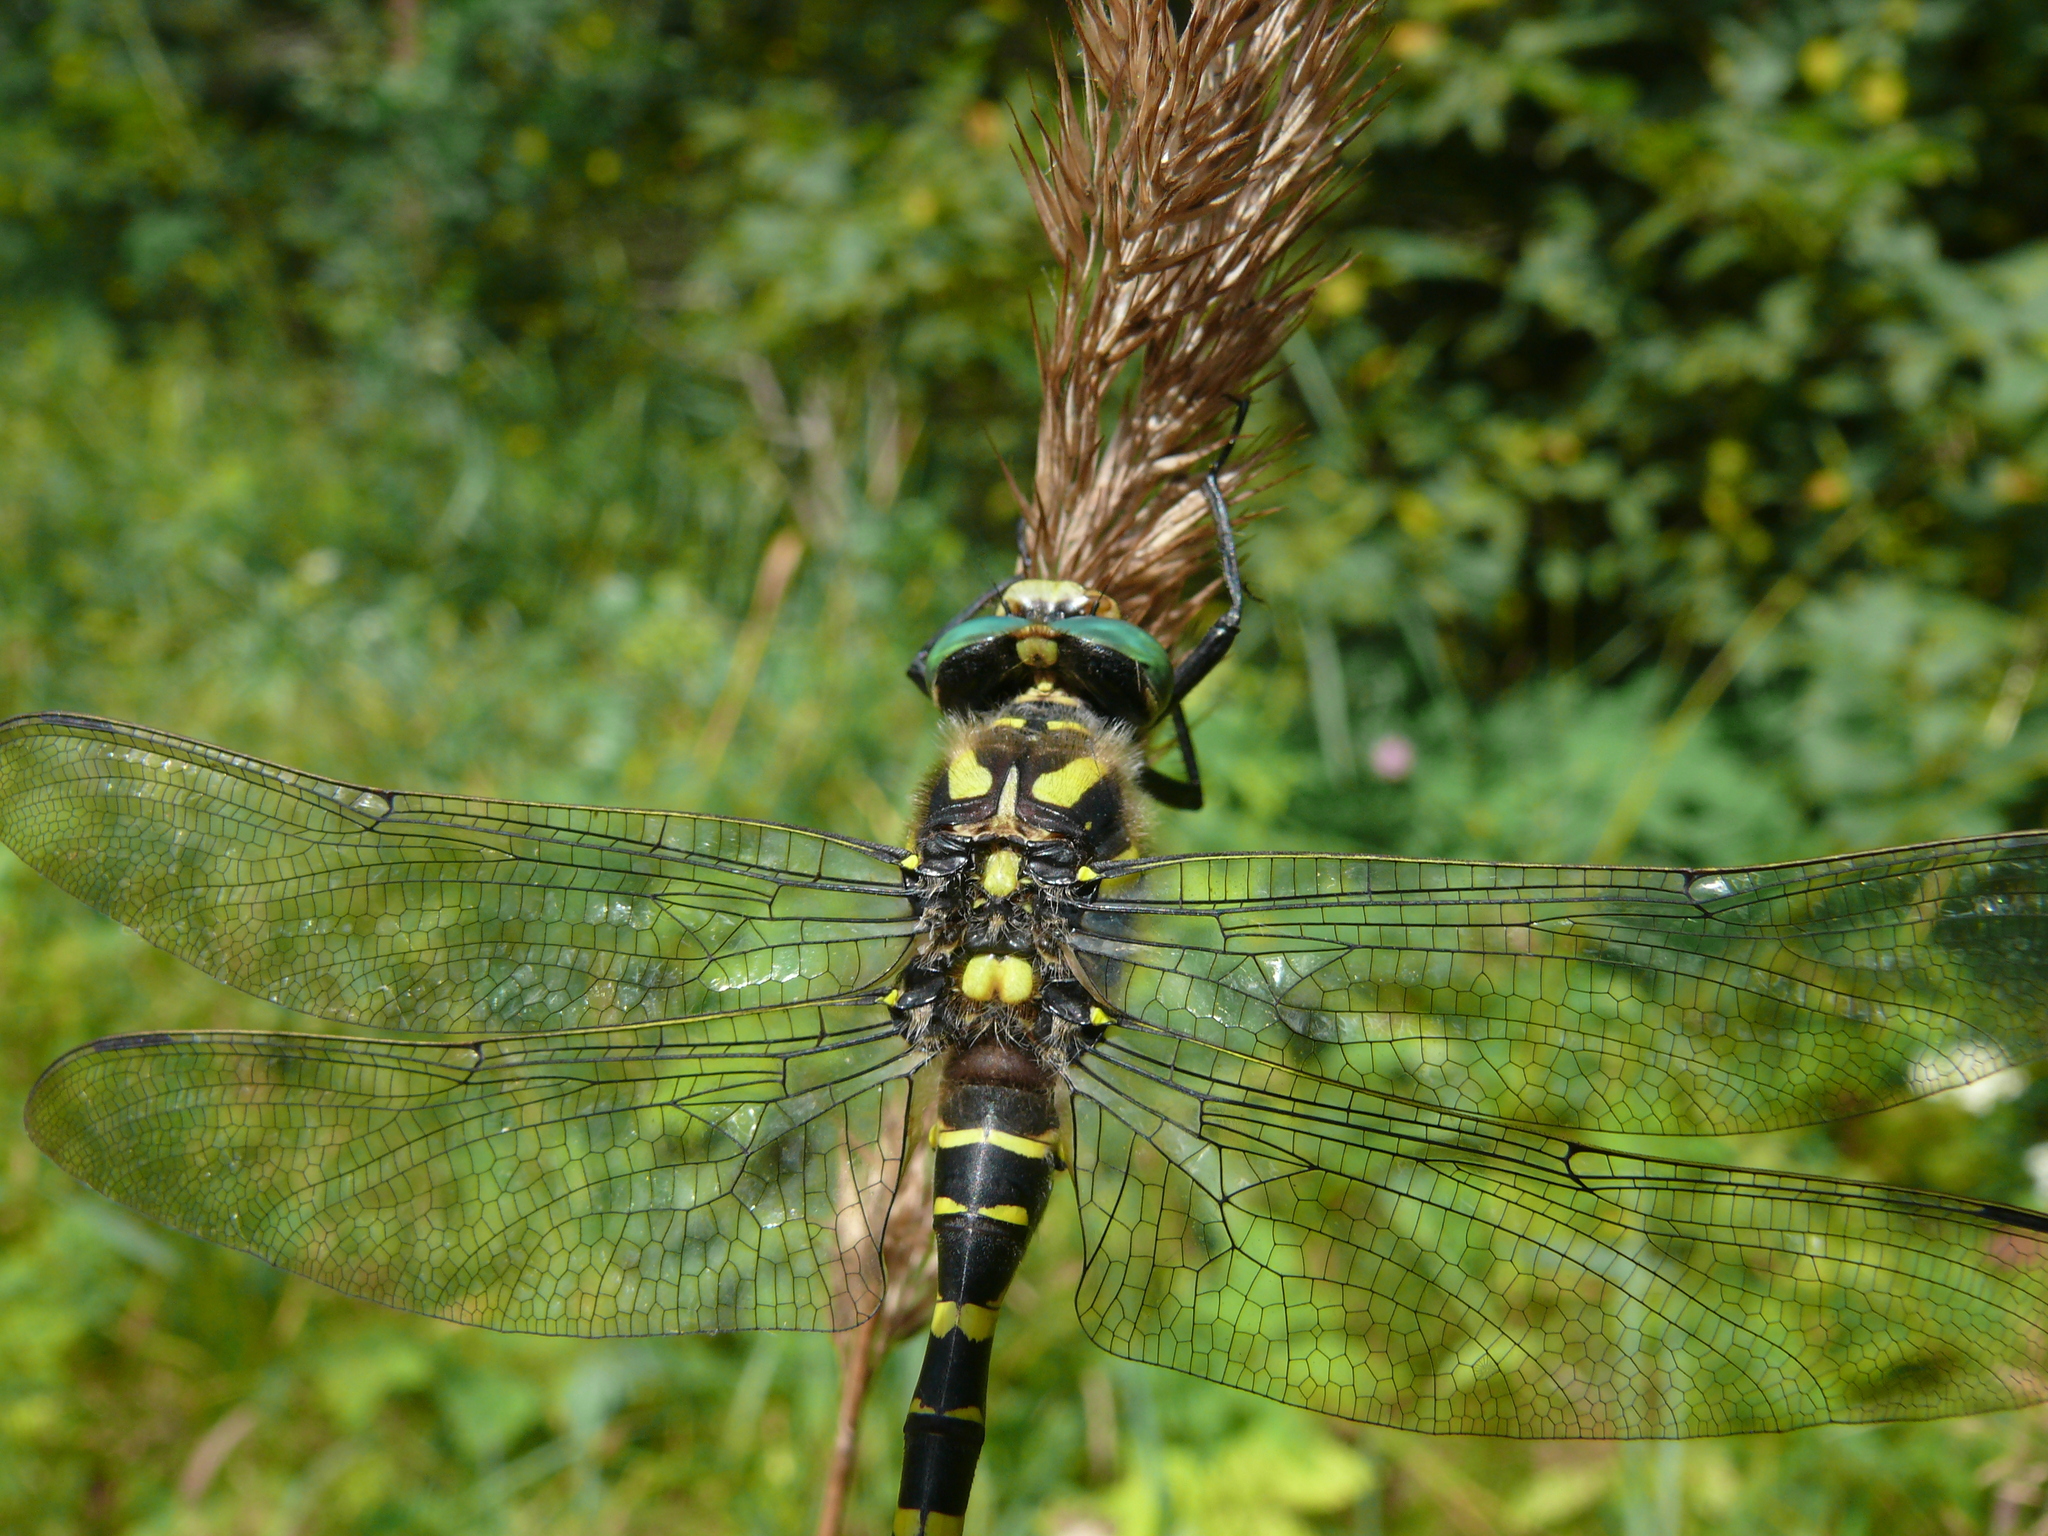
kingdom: Animalia
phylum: Arthropoda
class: Insecta
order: Odonata
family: Cordulegastridae
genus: Cordulegaster
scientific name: Cordulegaster boltonii
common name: Golden-ringed dragonfly
